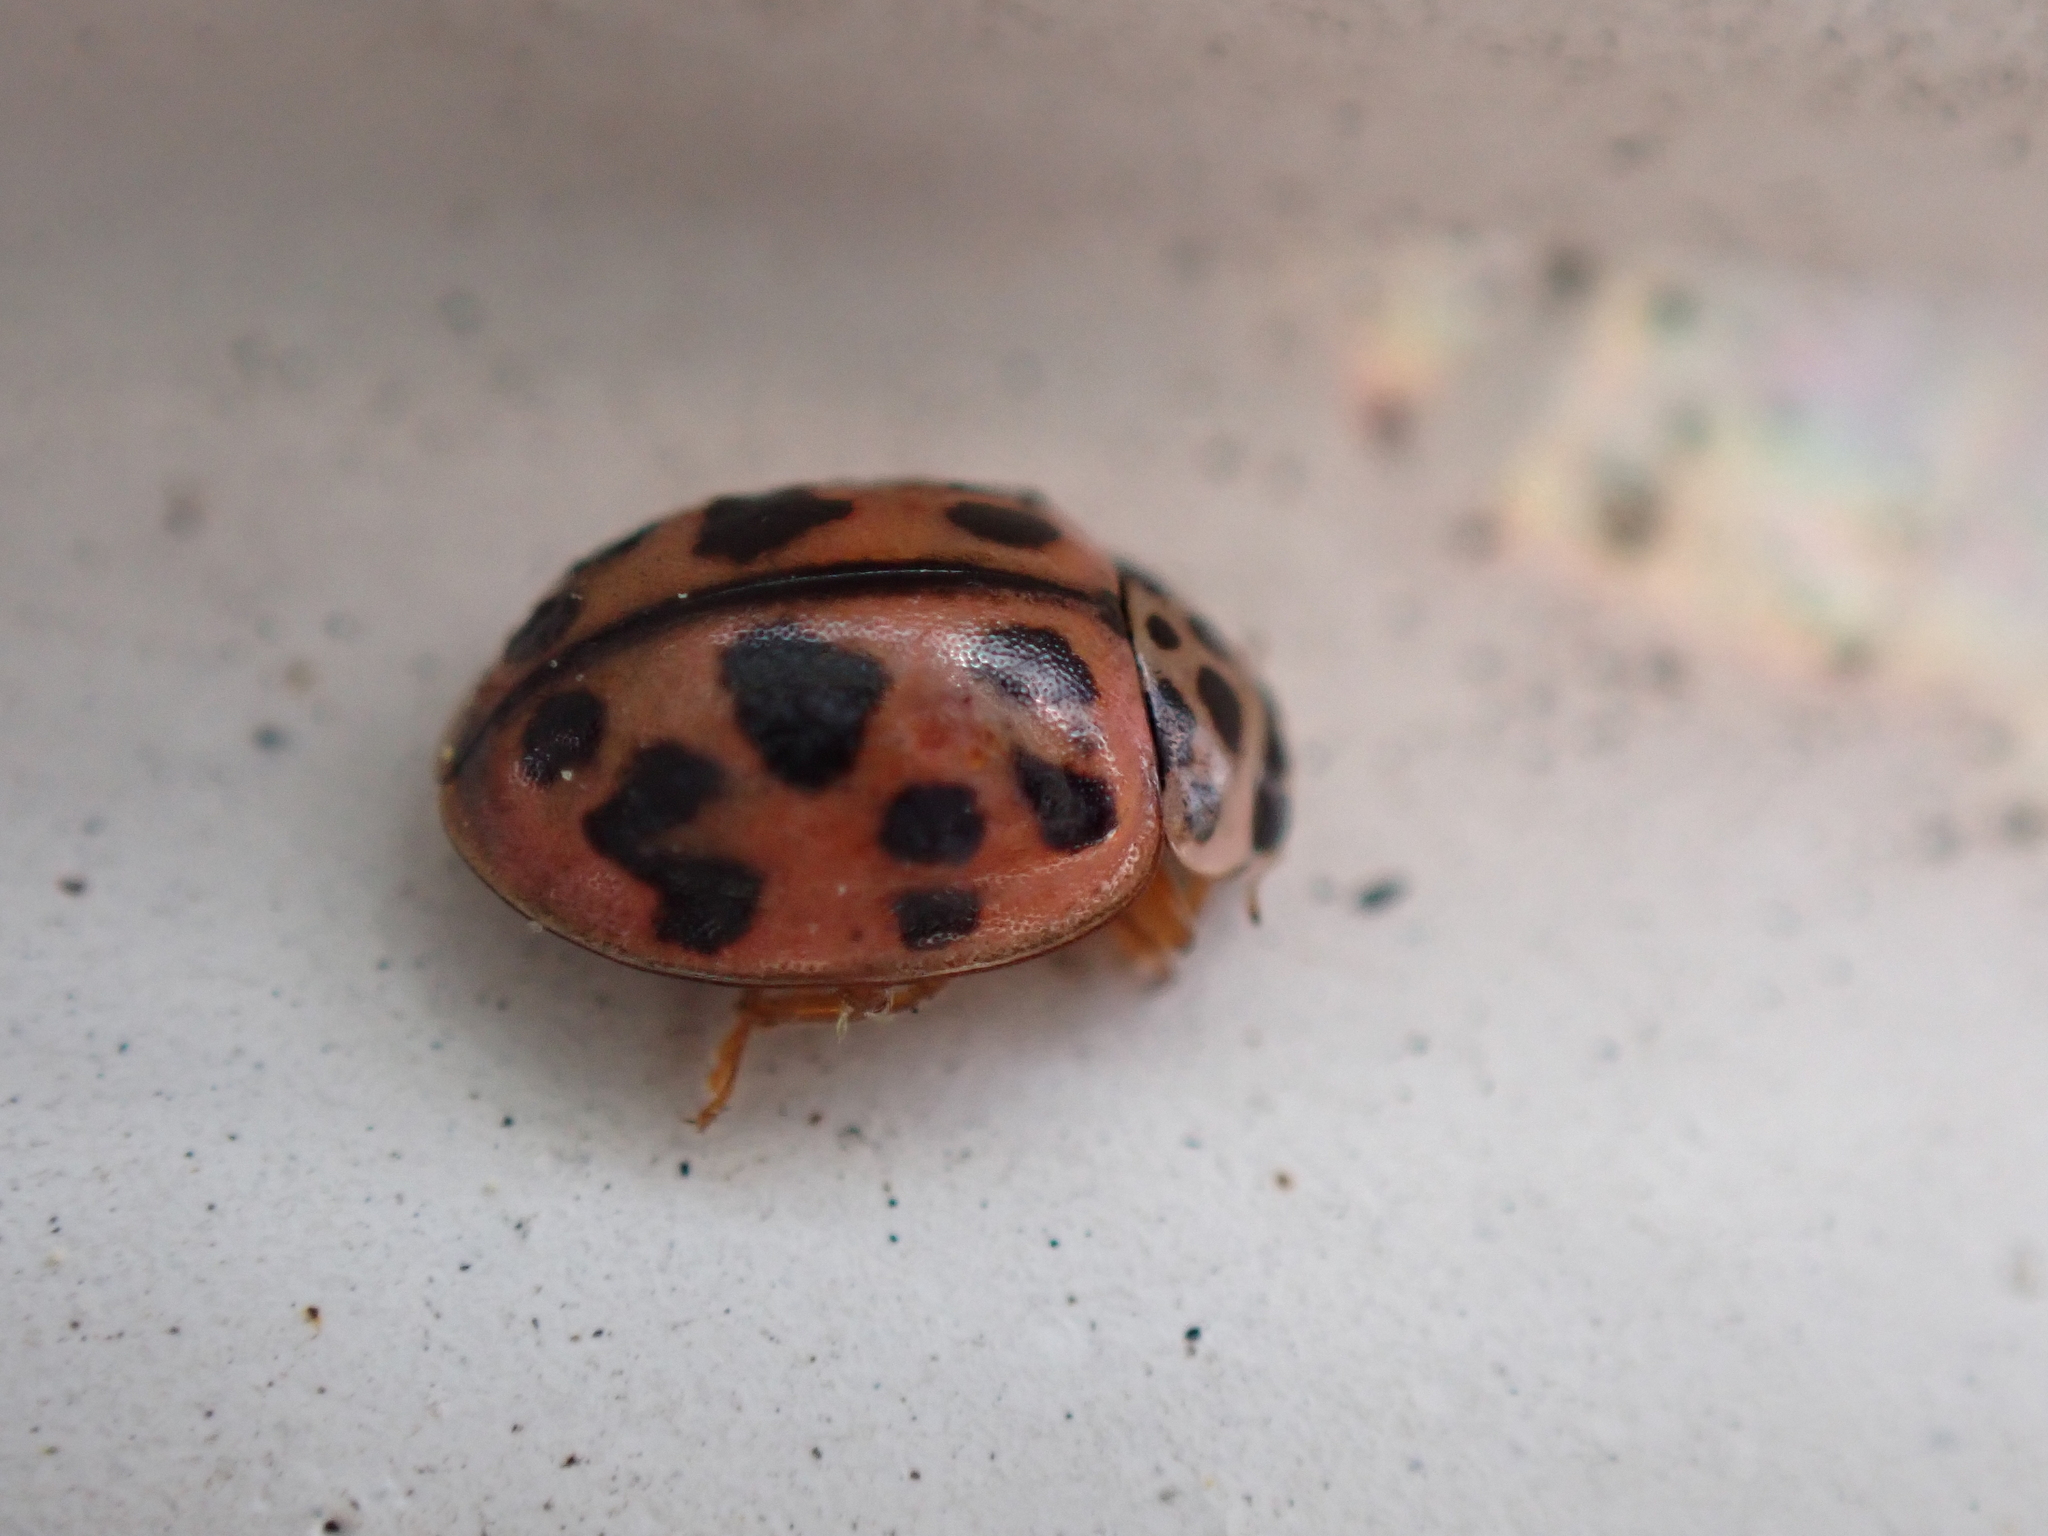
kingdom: Animalia
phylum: Arthropoda
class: Insecta
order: Coleoptera
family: Coccinellidae
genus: Oenopia
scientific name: Oenopia conglobata
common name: Ladybird beetle
